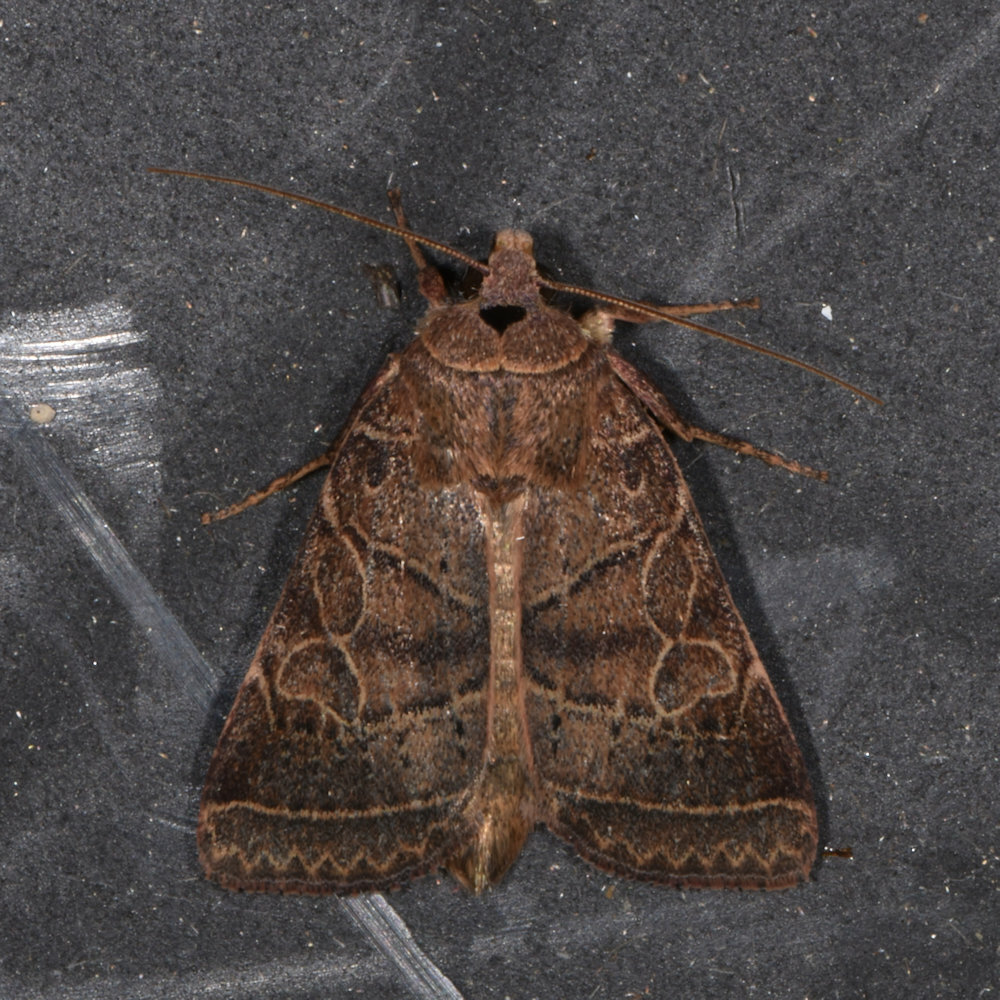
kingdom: Animalia
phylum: Arthropoda
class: Insecta
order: Lepidoptera
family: Noctuidae
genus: Orthodes
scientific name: Orthodes majuscula
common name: Rustic quaker
